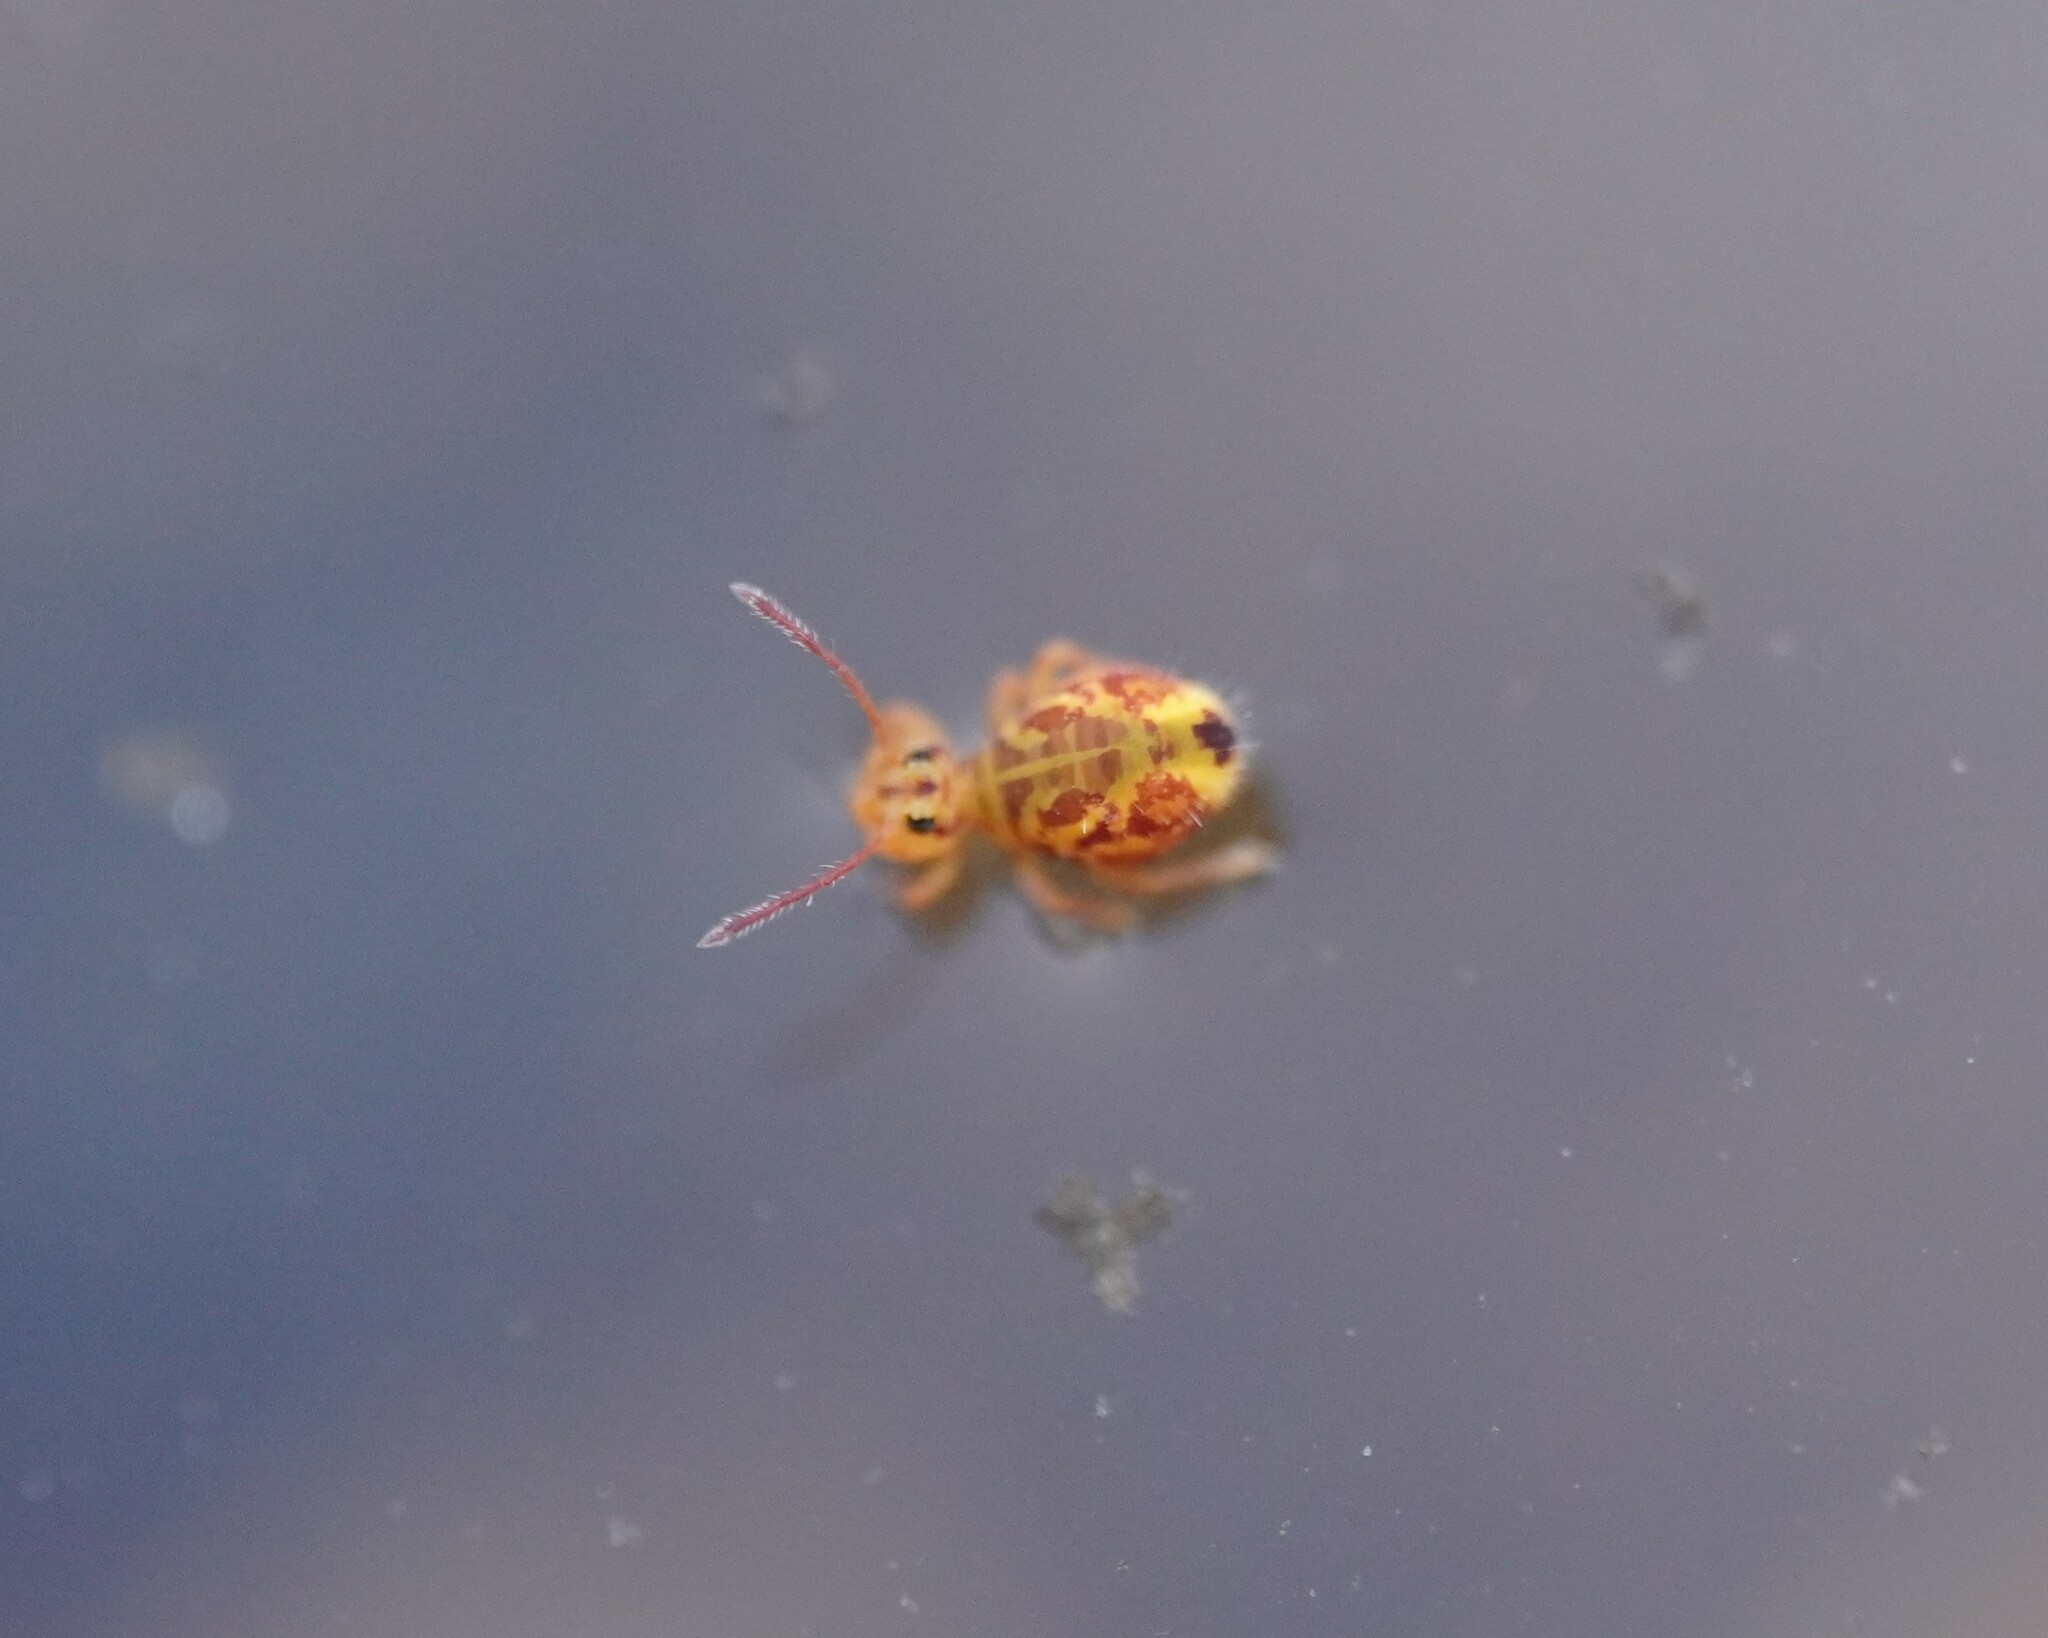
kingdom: Animalia
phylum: Arthropoda
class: Collembola
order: Symphypleona
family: Dicyrtomidae
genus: Dicyrtomina
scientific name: Dicyrtomina ornata
